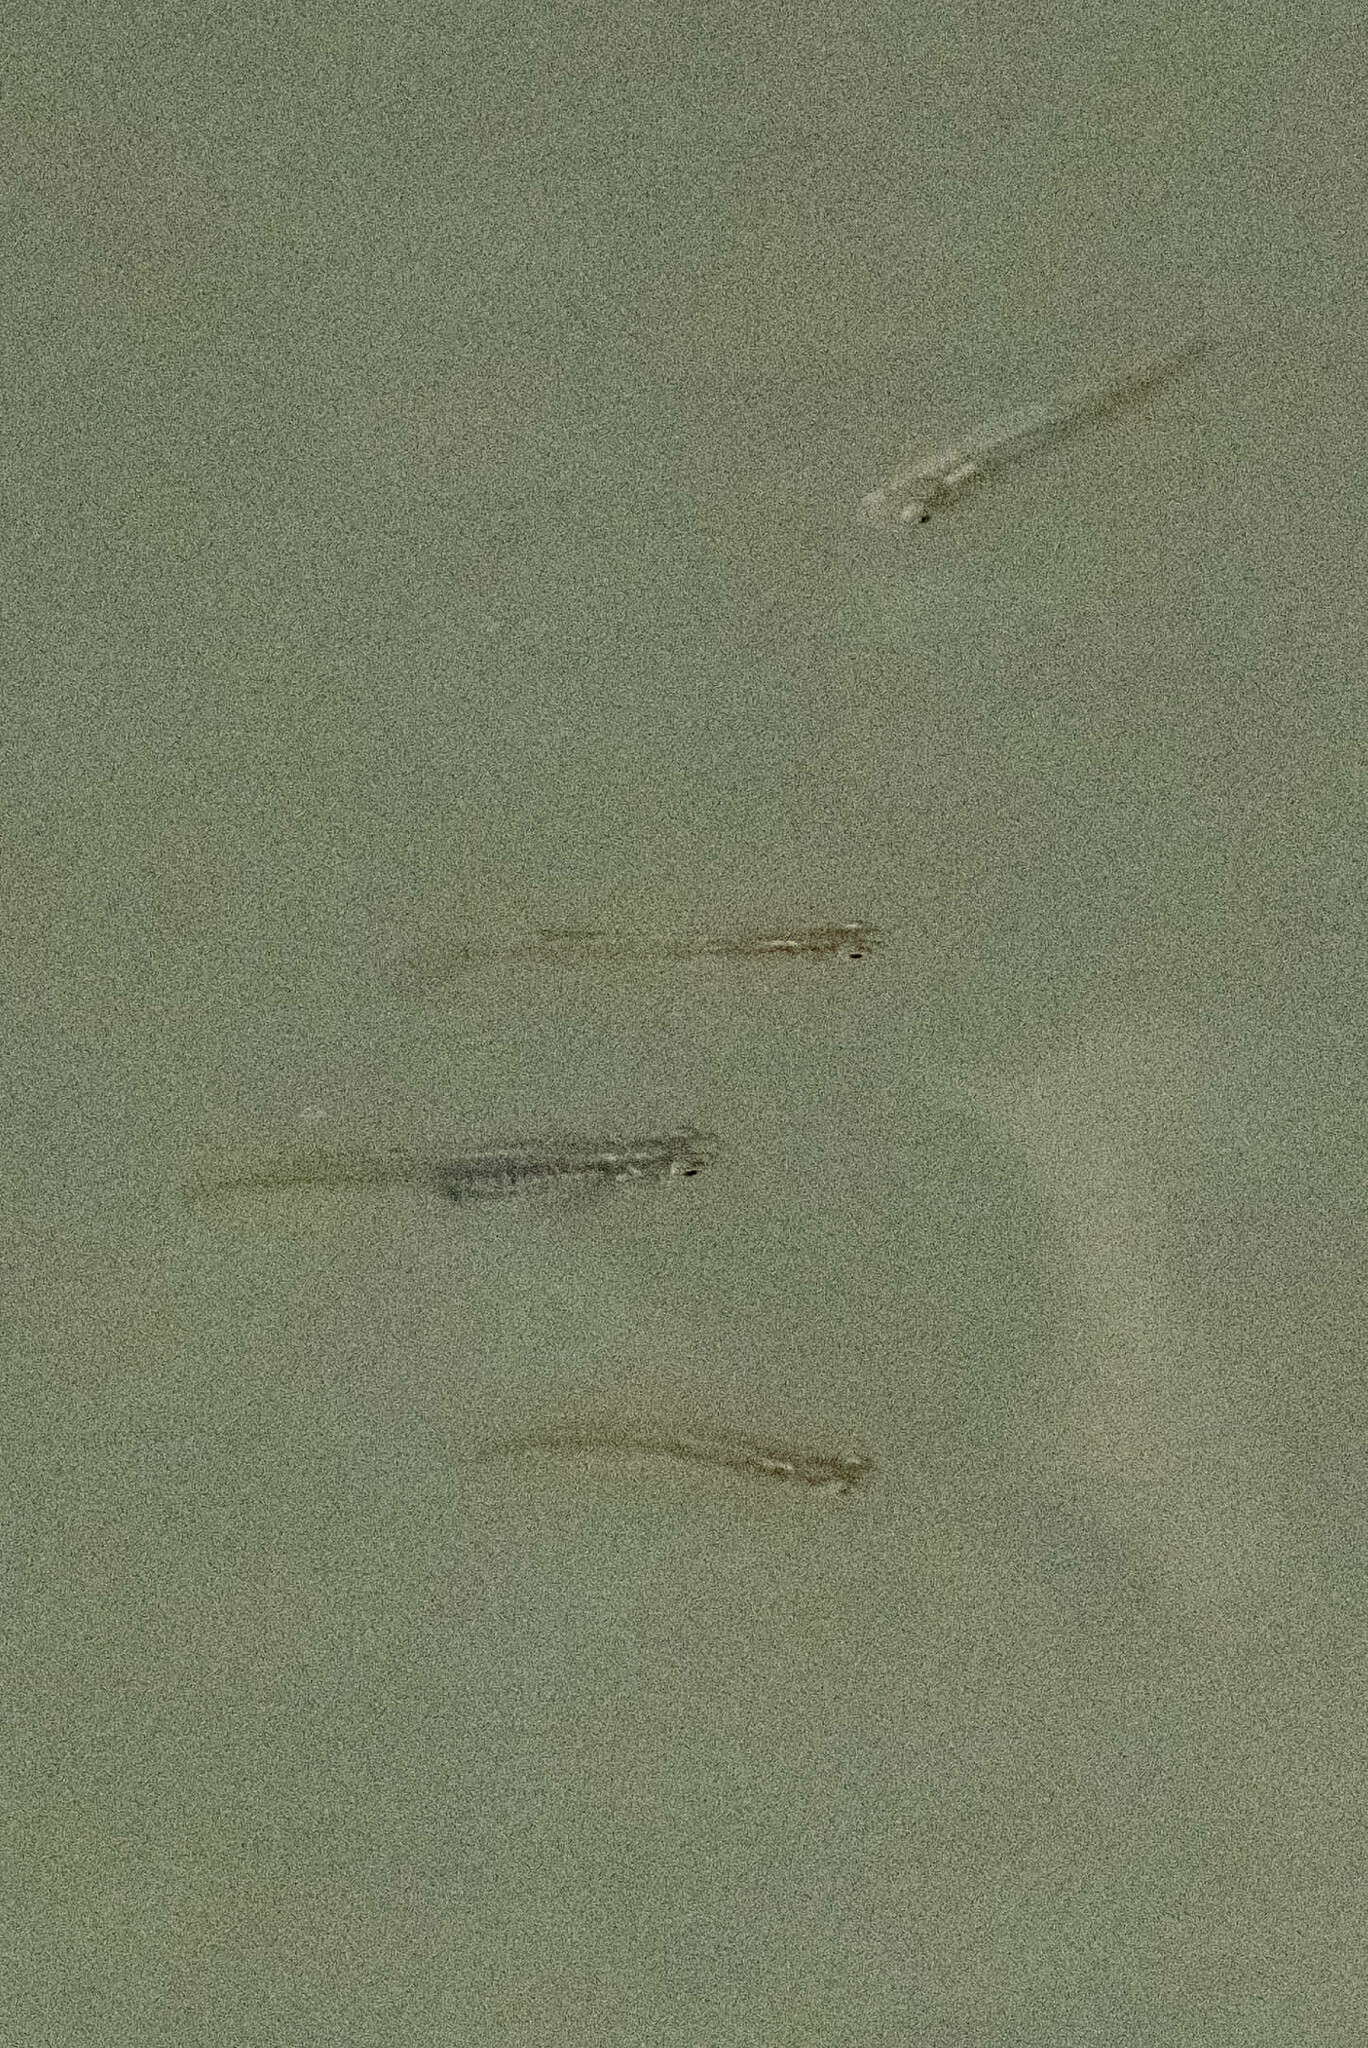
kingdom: Animalia
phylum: Chordata
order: Cyprinodontiformes
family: Poeciliidae
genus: Gambusia
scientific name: Gambusia affinis
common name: Mosquitofish
